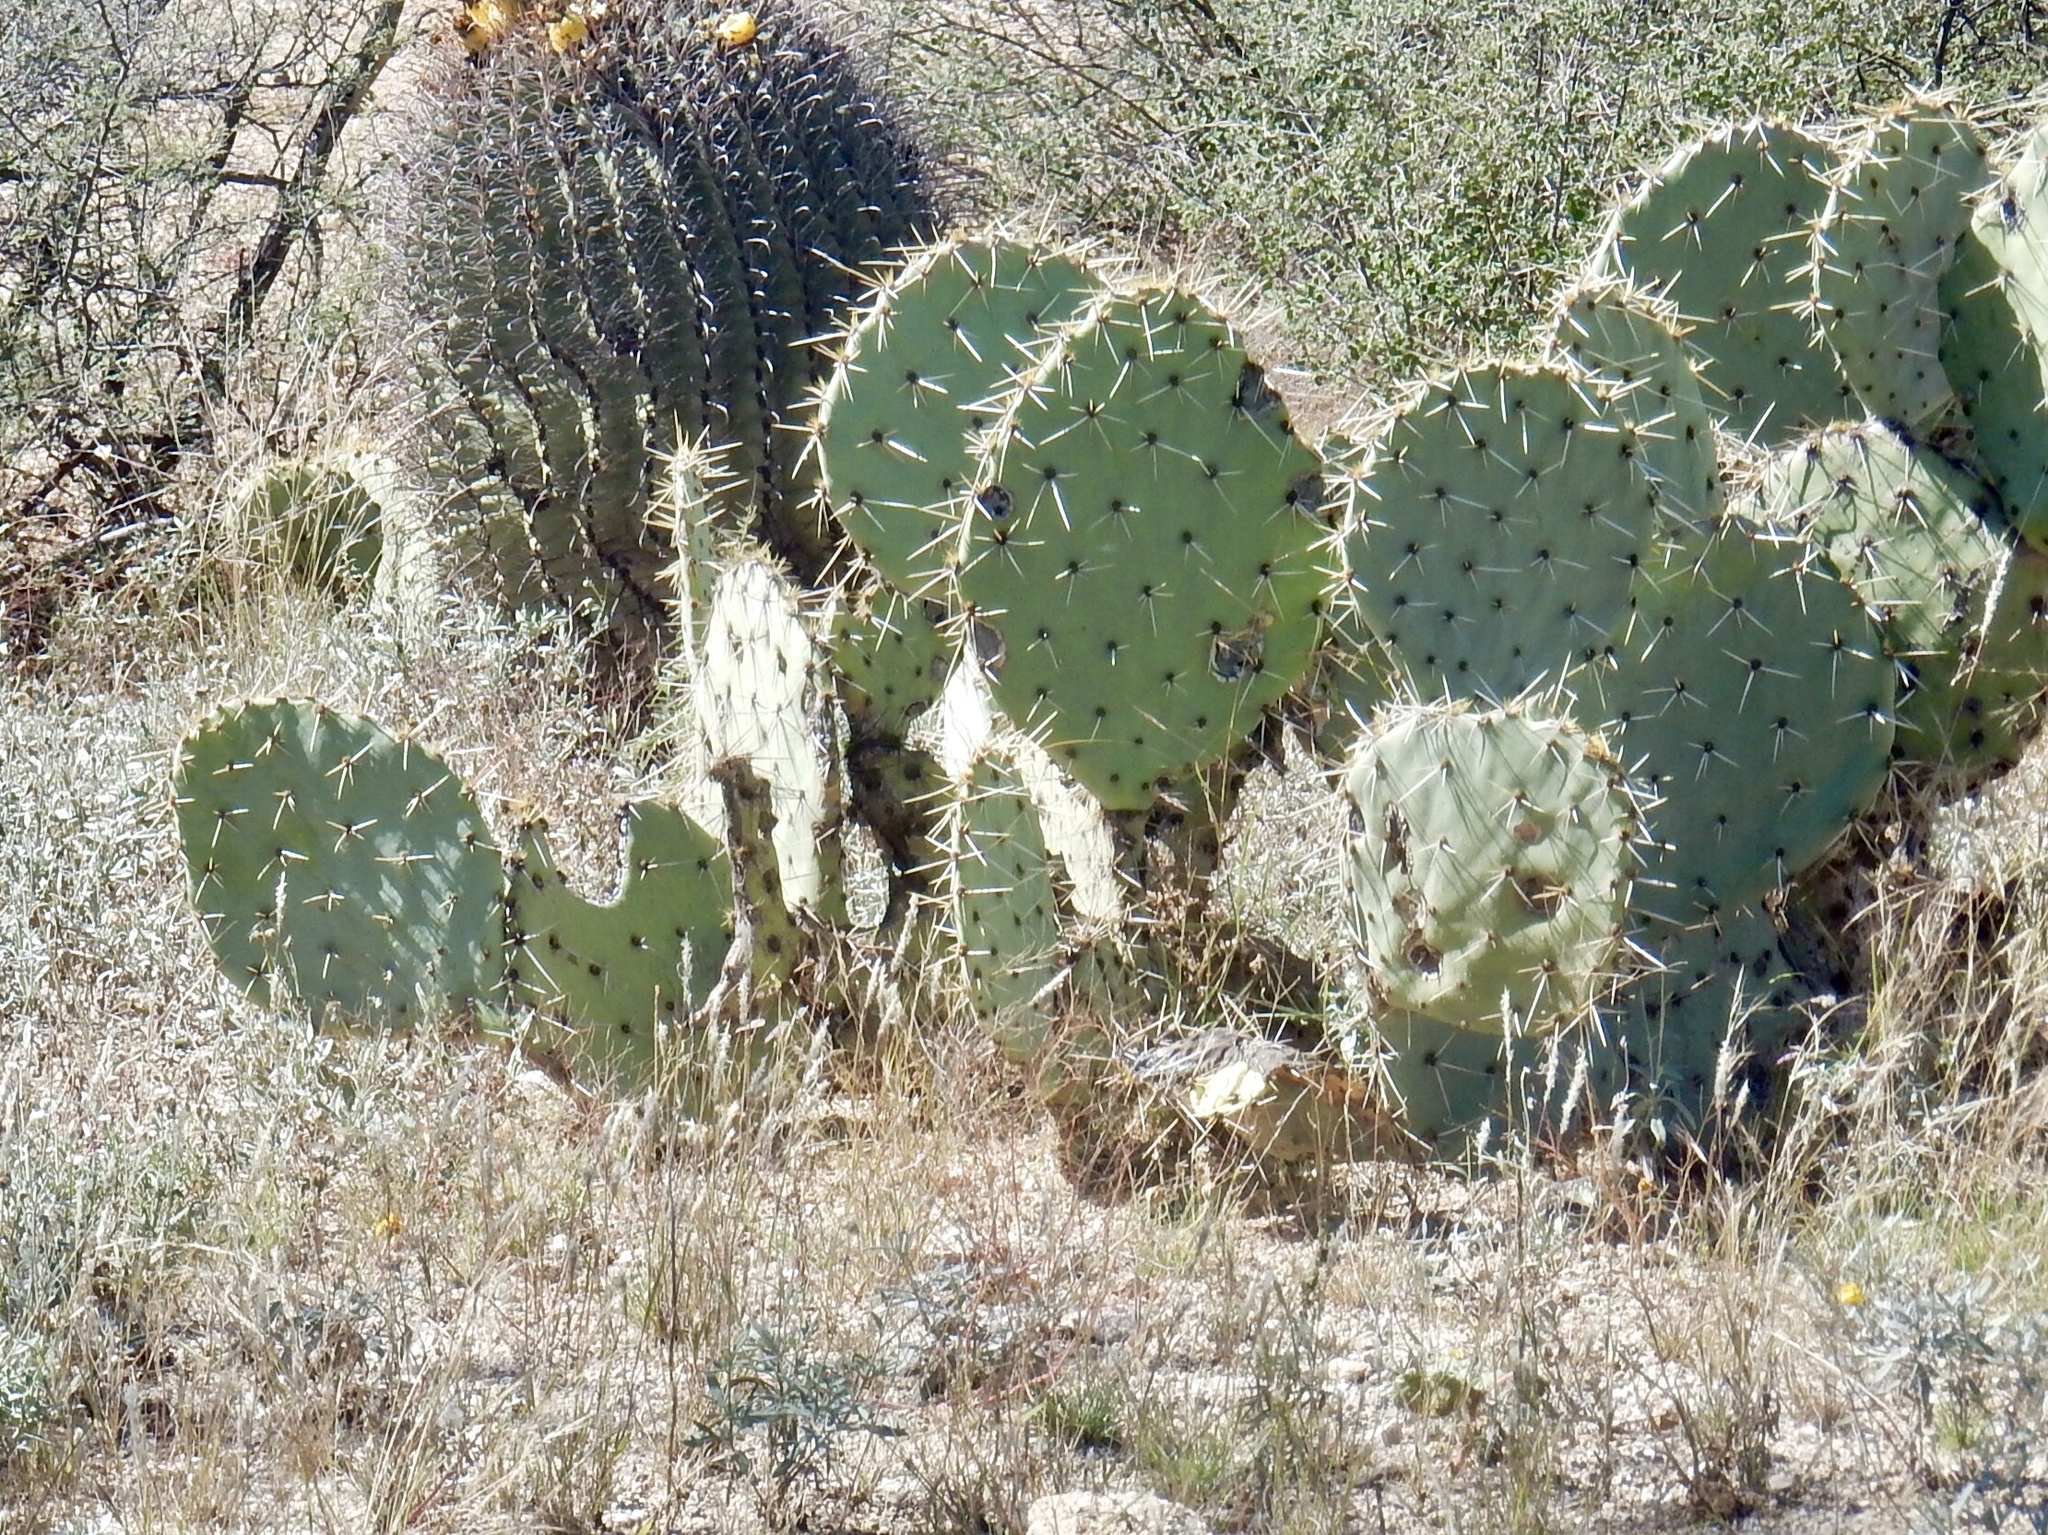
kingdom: Plantae
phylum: Tracheophyta
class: Magnoliopsida
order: Caryophyllales
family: Cactaceae
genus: Opuntia
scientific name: Opuntia engelmannii
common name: Cactus-apple
